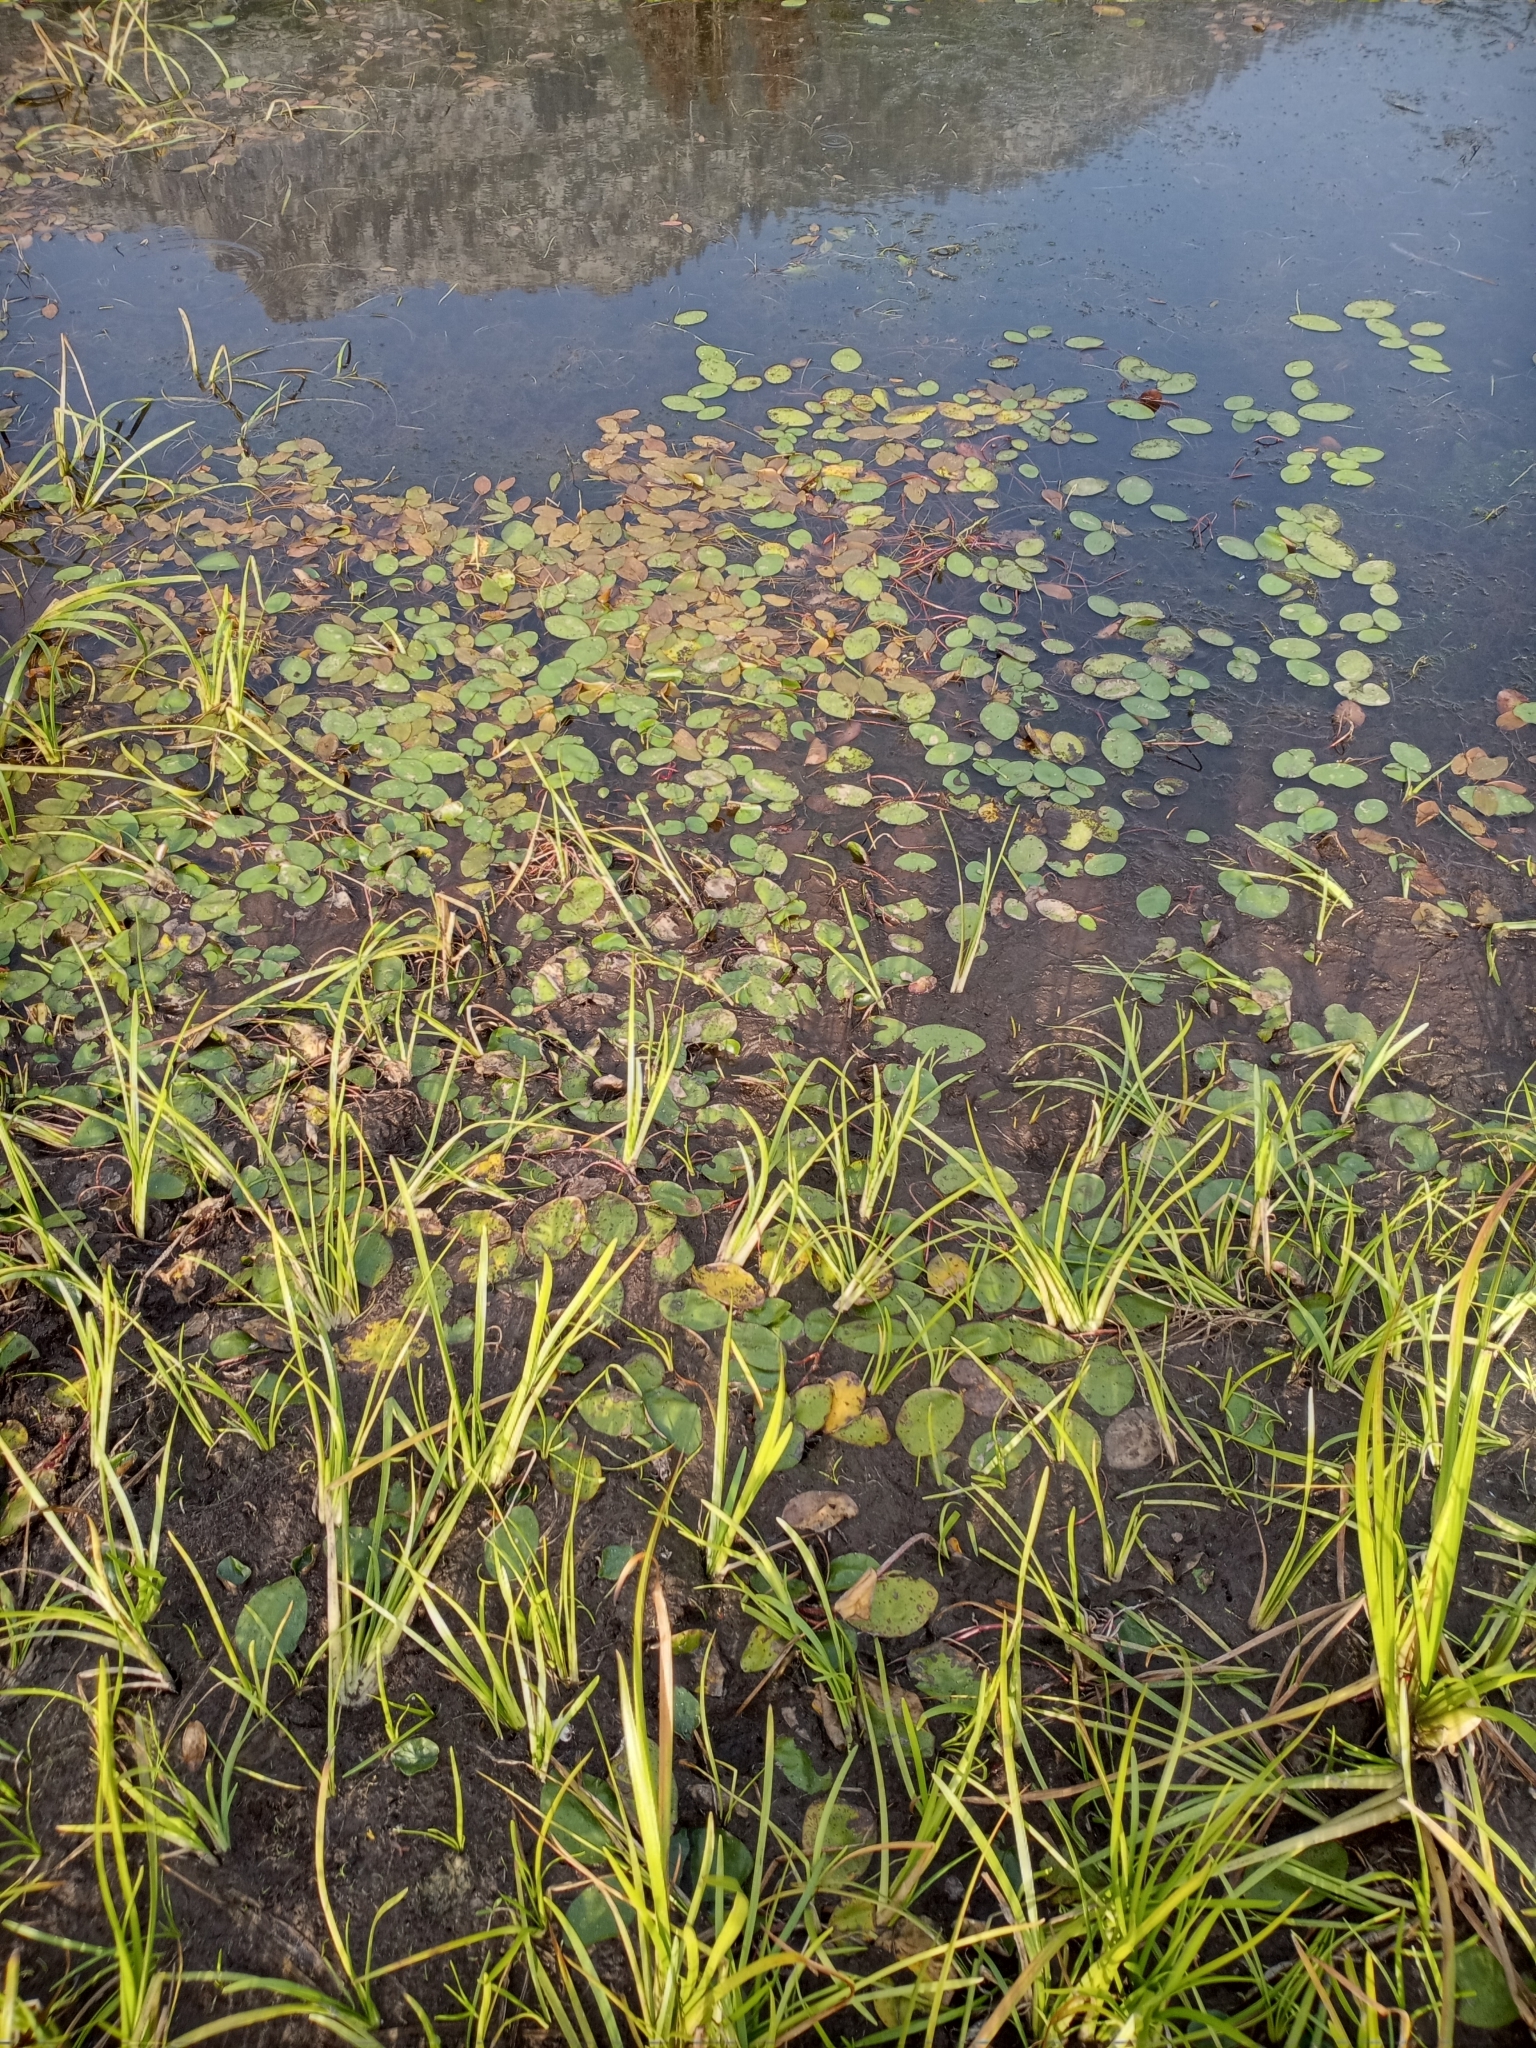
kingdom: Plantae
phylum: Tracheophyta
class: Magnoliopsida
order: Nymphaeales
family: Cabombaceae
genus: Brasenia
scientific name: Brasenia schreberi
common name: Water-shield
